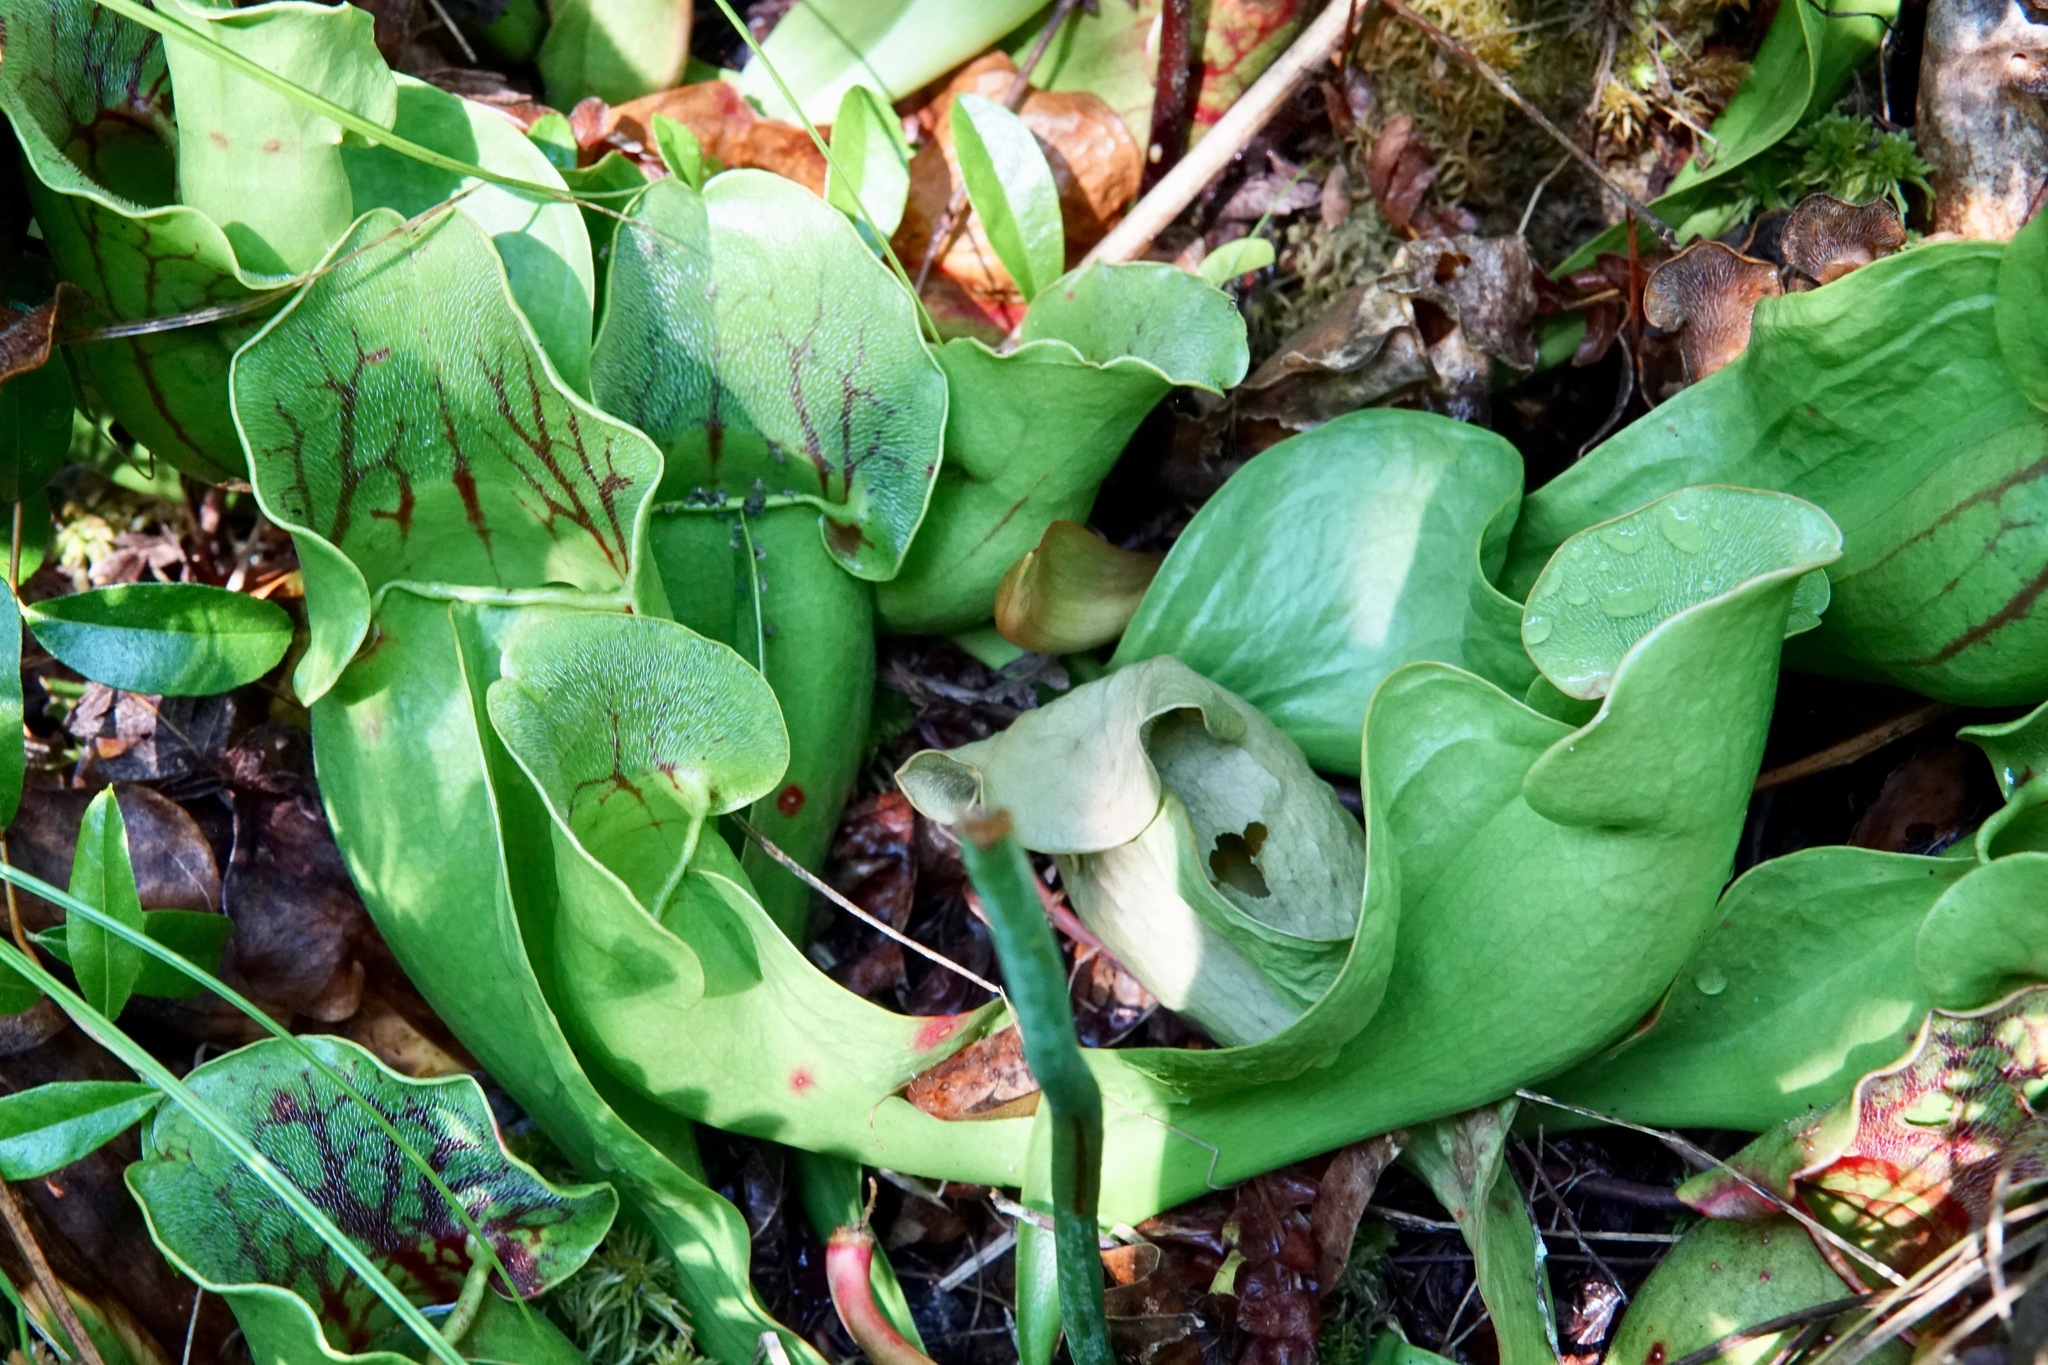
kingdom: Plantae
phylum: Tracheophyta
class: Magnoliopsida
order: Ericales
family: Sarraceniaceae
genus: Sarracenia
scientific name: Sarracenia purpurea
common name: Pitcherplant
